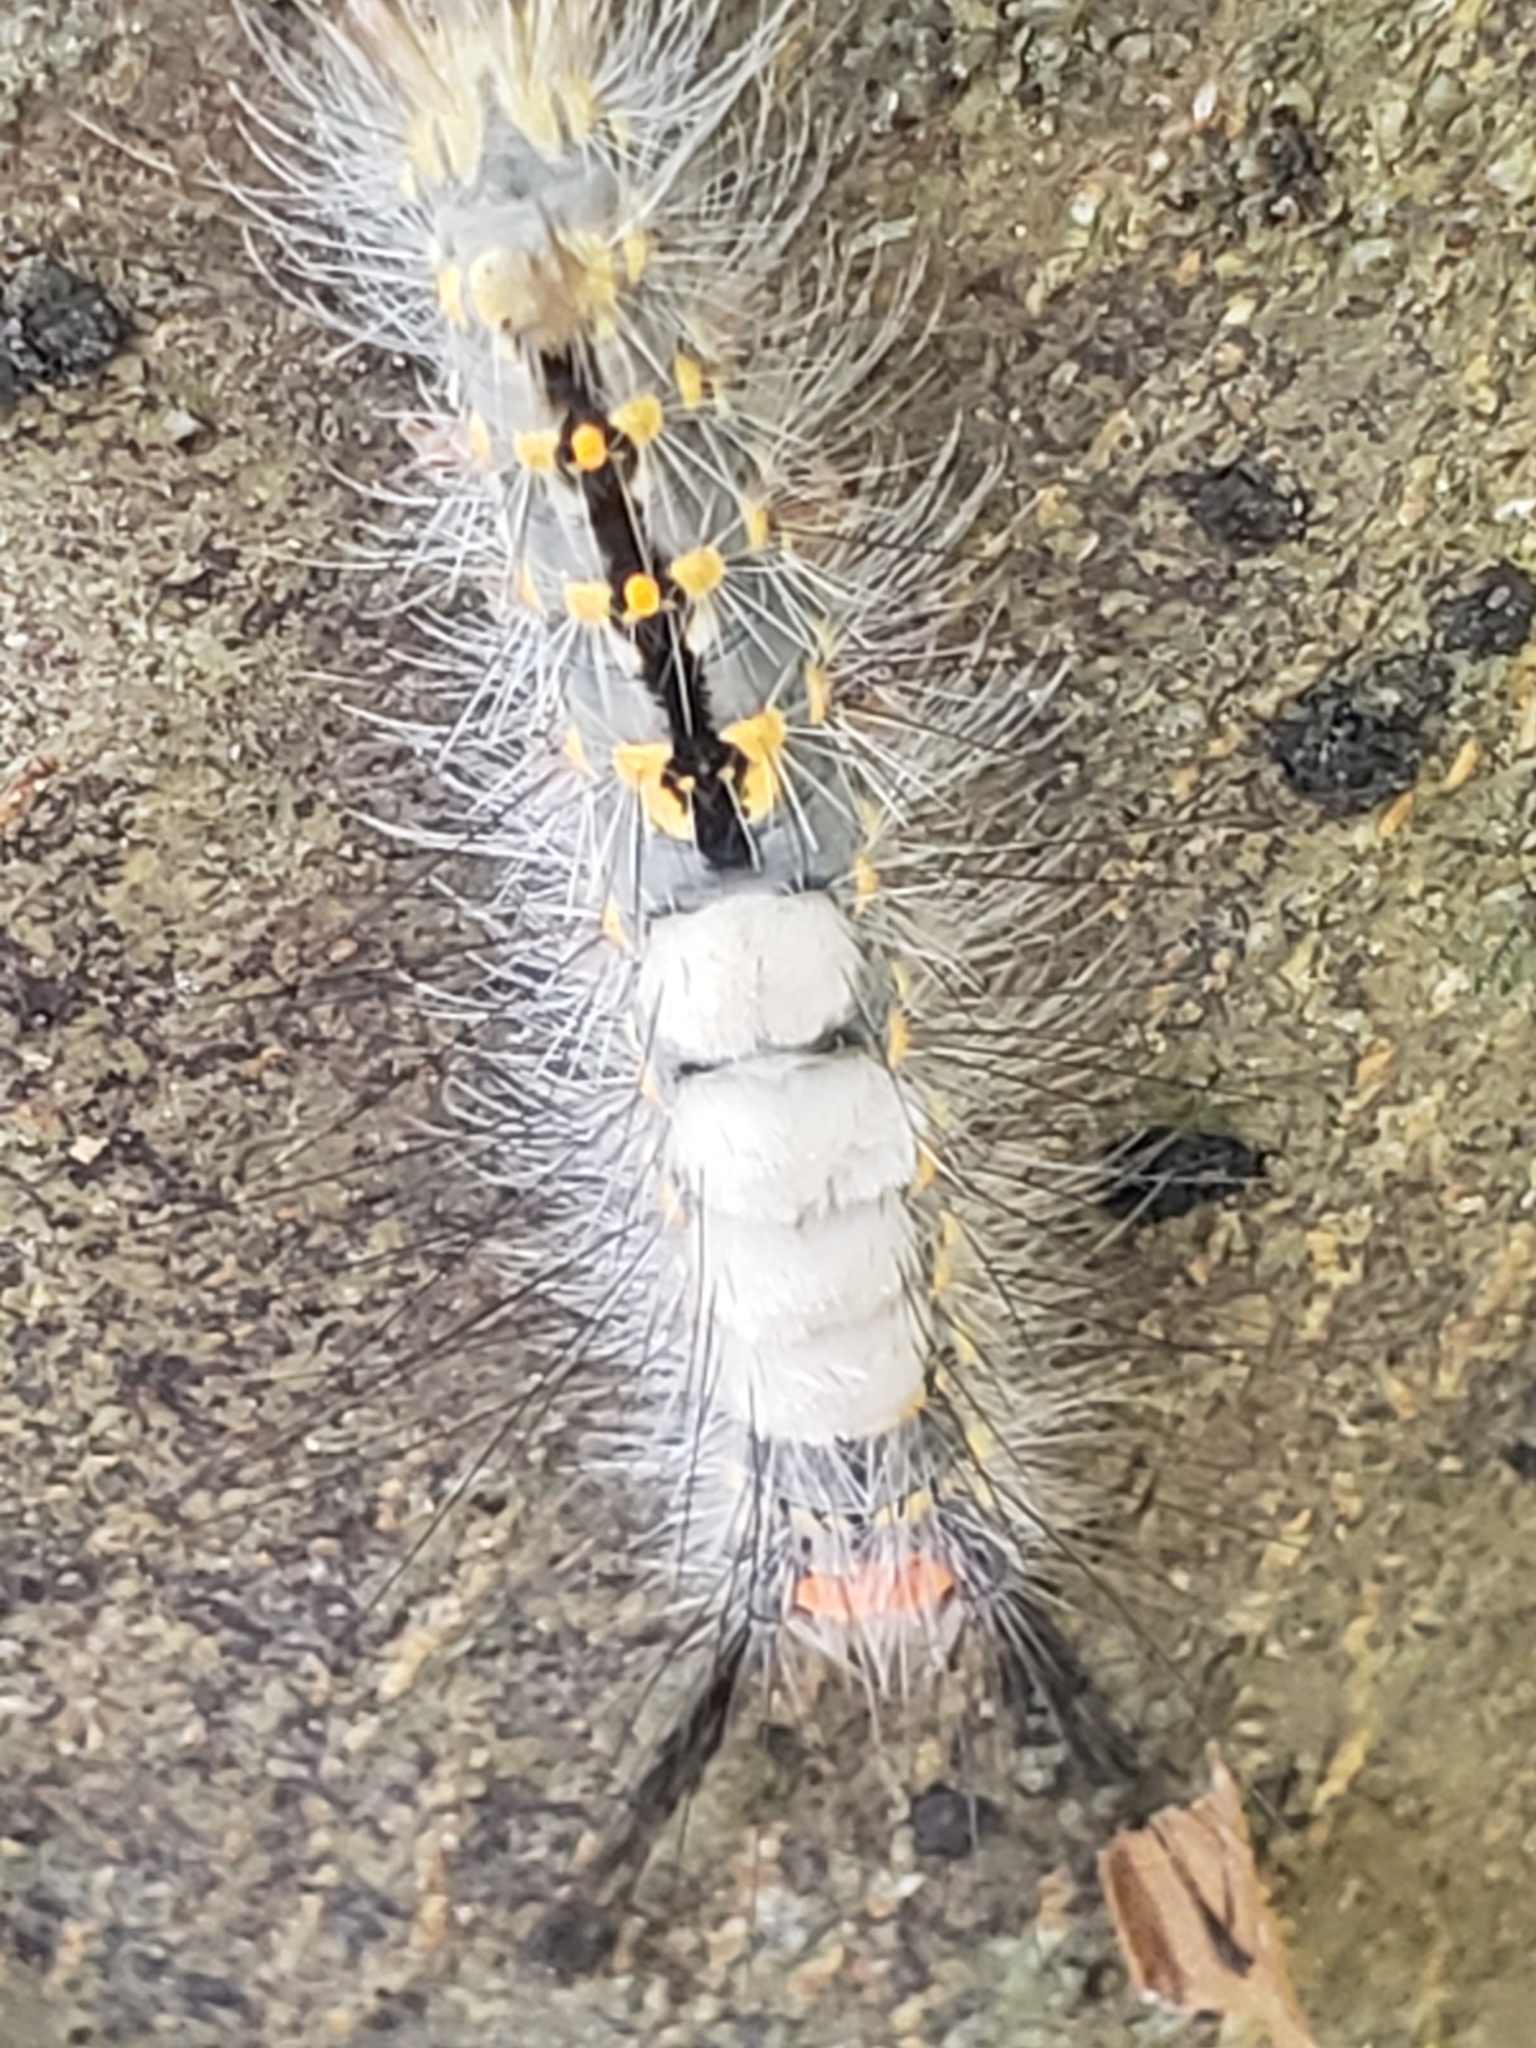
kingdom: Animalia
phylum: Arthropoda
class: Insecta
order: Lepidoptera
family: Erebidae
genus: Orgyia
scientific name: Orgyia detrita
